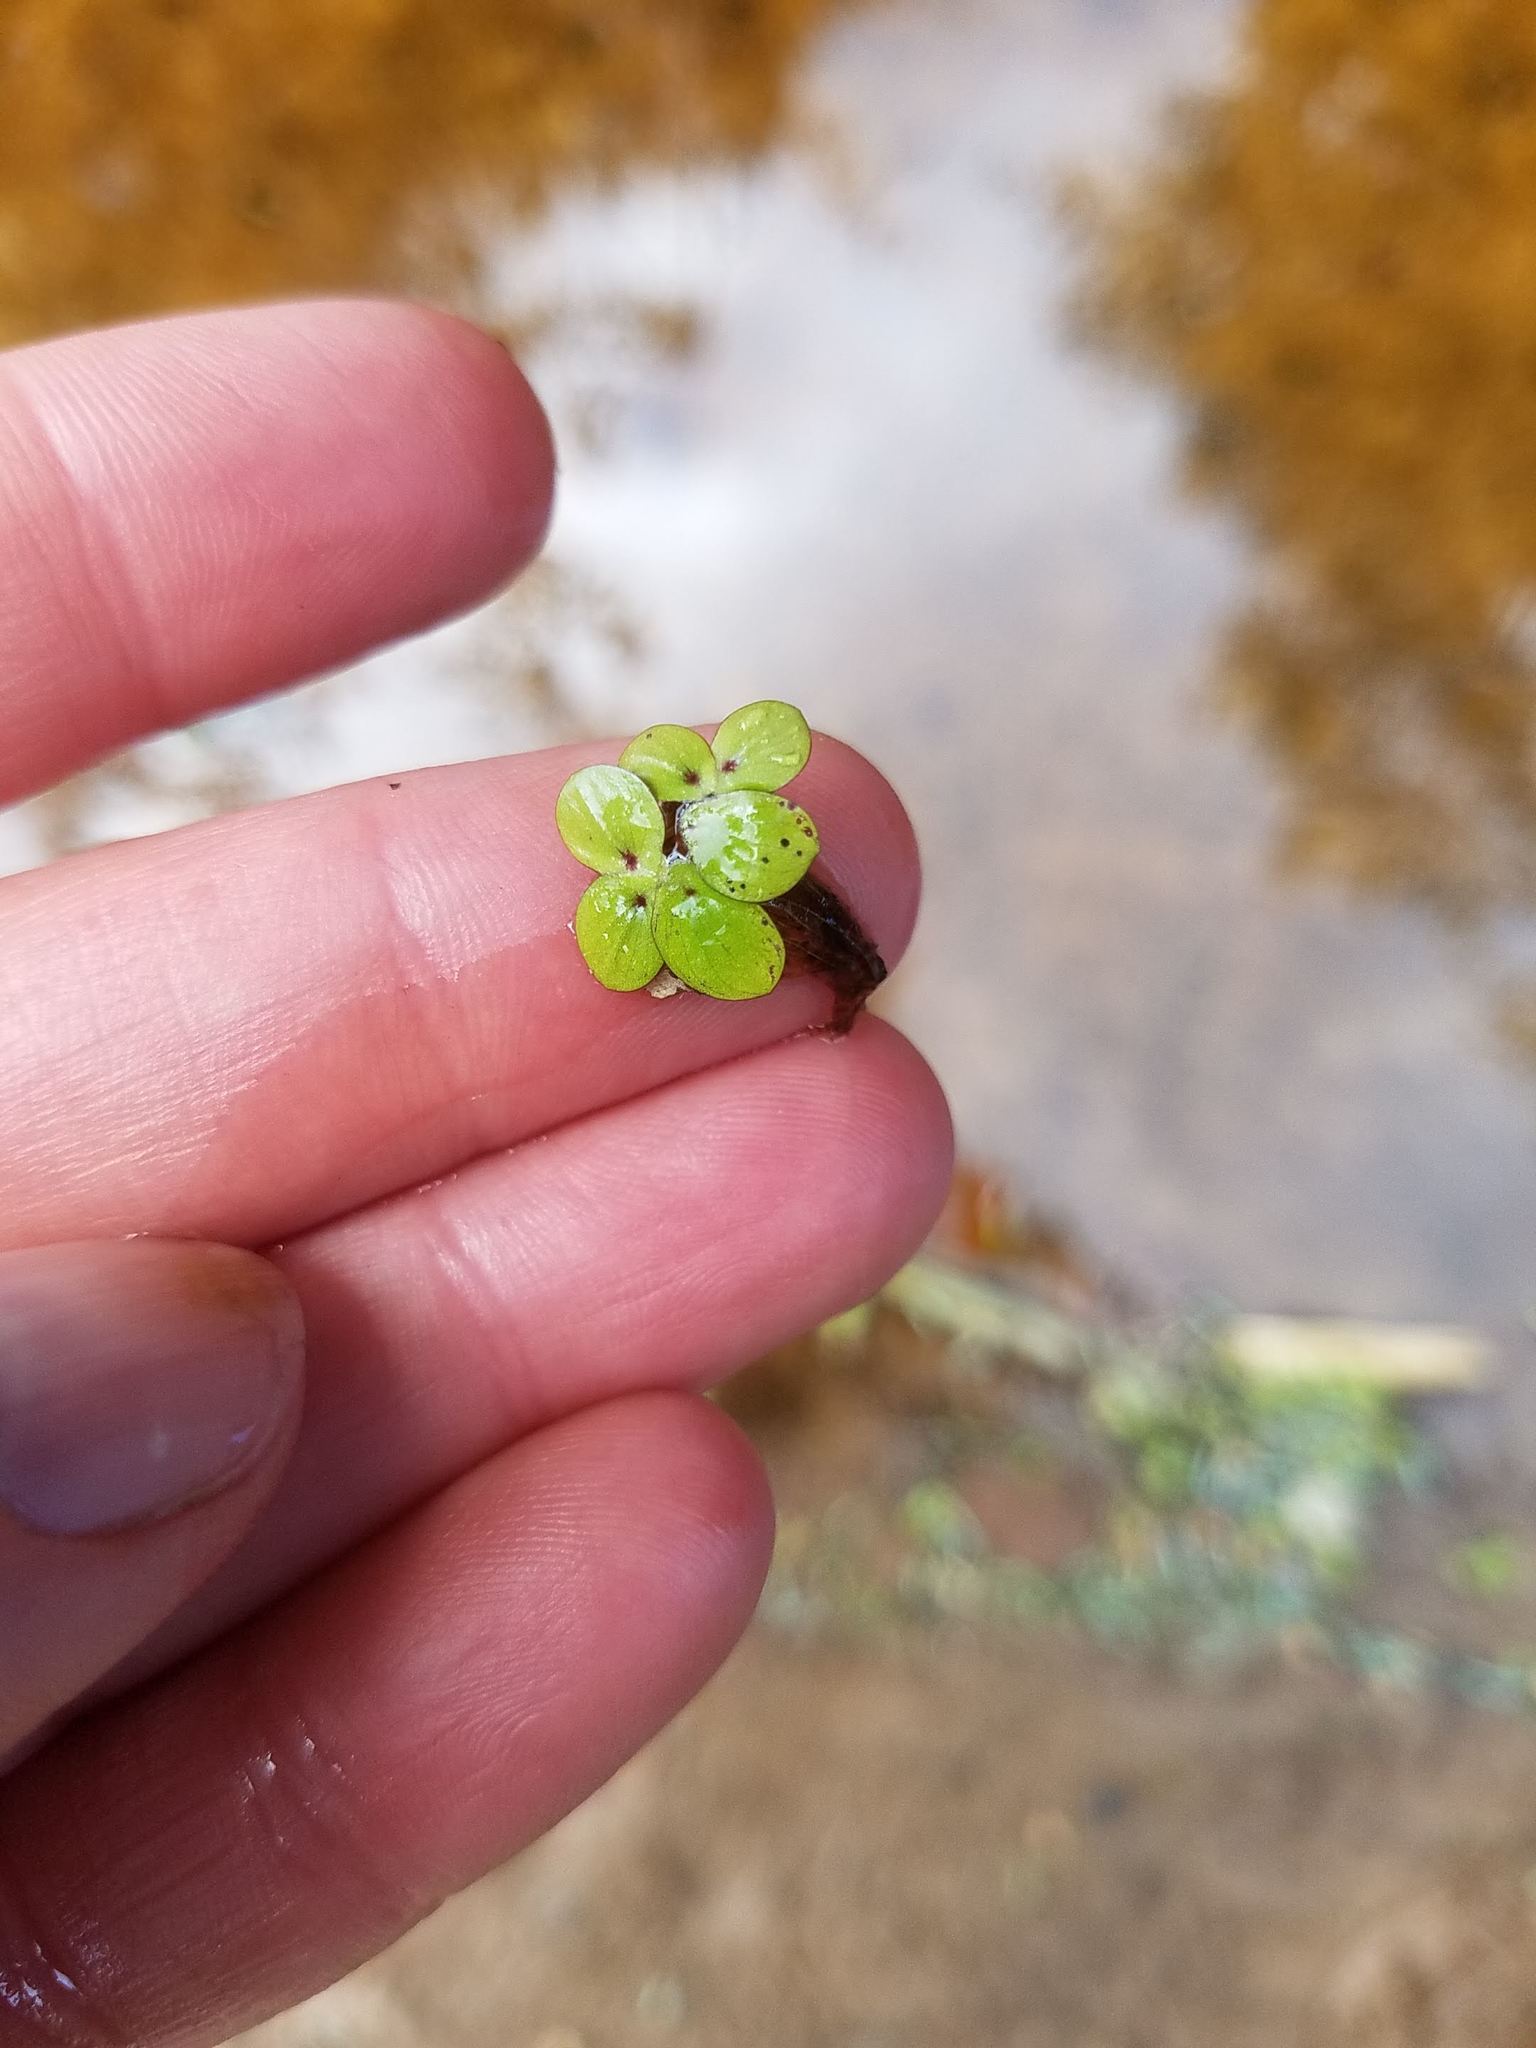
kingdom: Plantae
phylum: Tracheophyta
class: Liliopsida
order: Alismatales
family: Araceae
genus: Spirodela
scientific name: Spirodela polyrhiza
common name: Great duckweed
